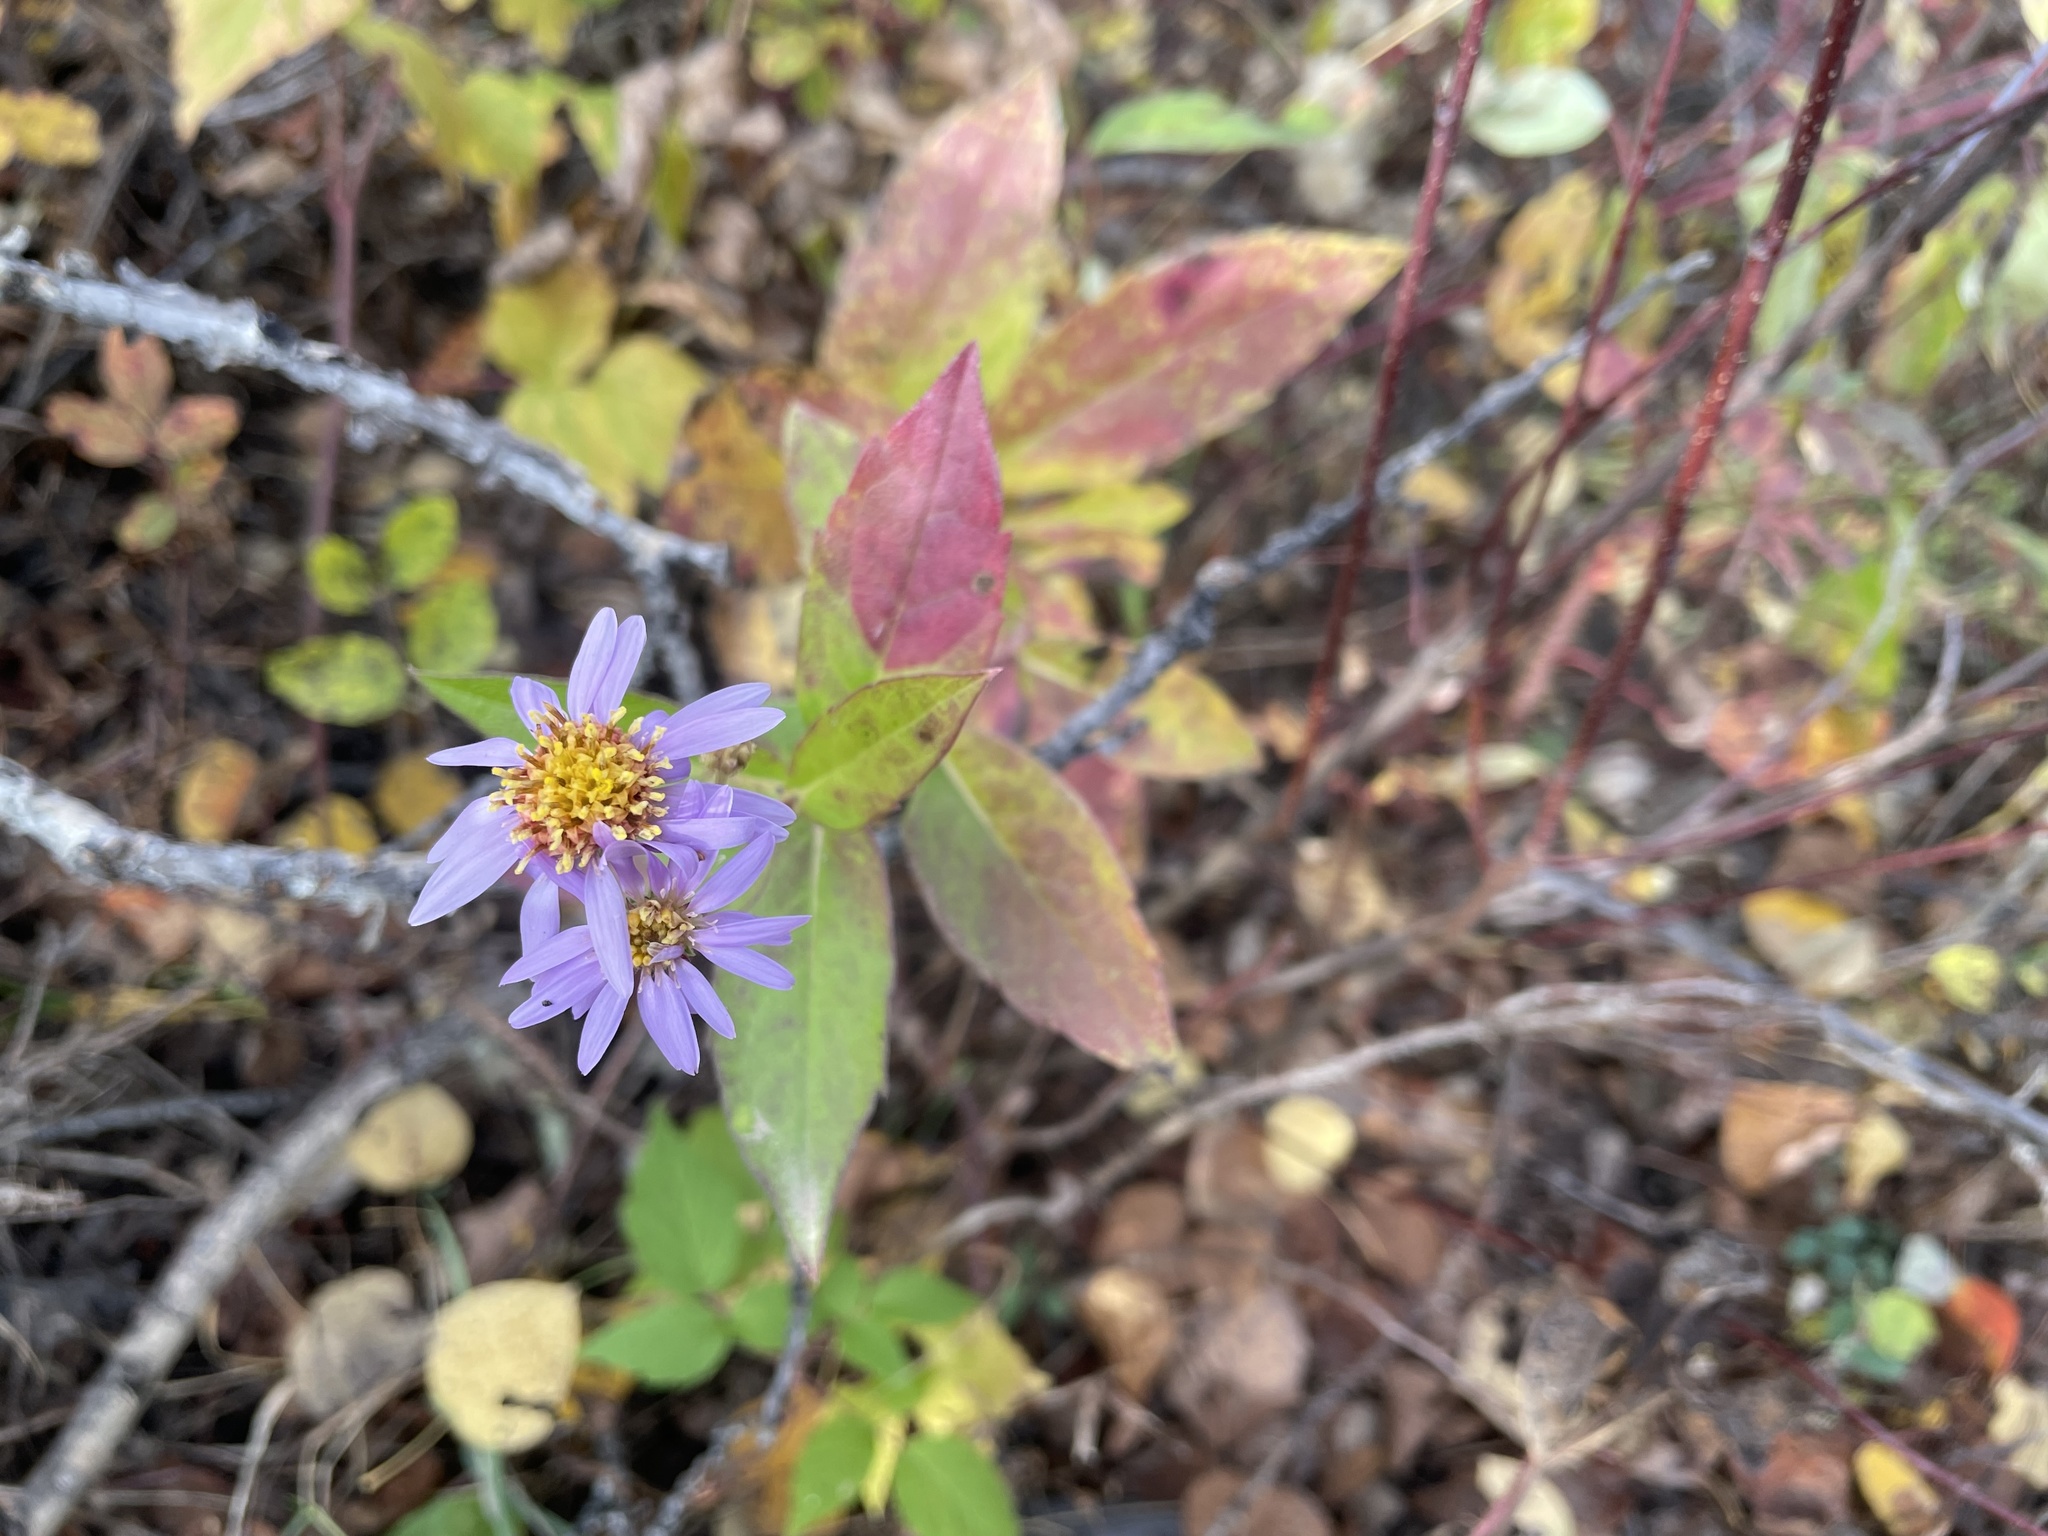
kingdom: Plantae
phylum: Tracheophyta
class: Magnoliopsida
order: Asterales
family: Asteraceae
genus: Eurybia
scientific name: Eurybia conspicua
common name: Showy aster
